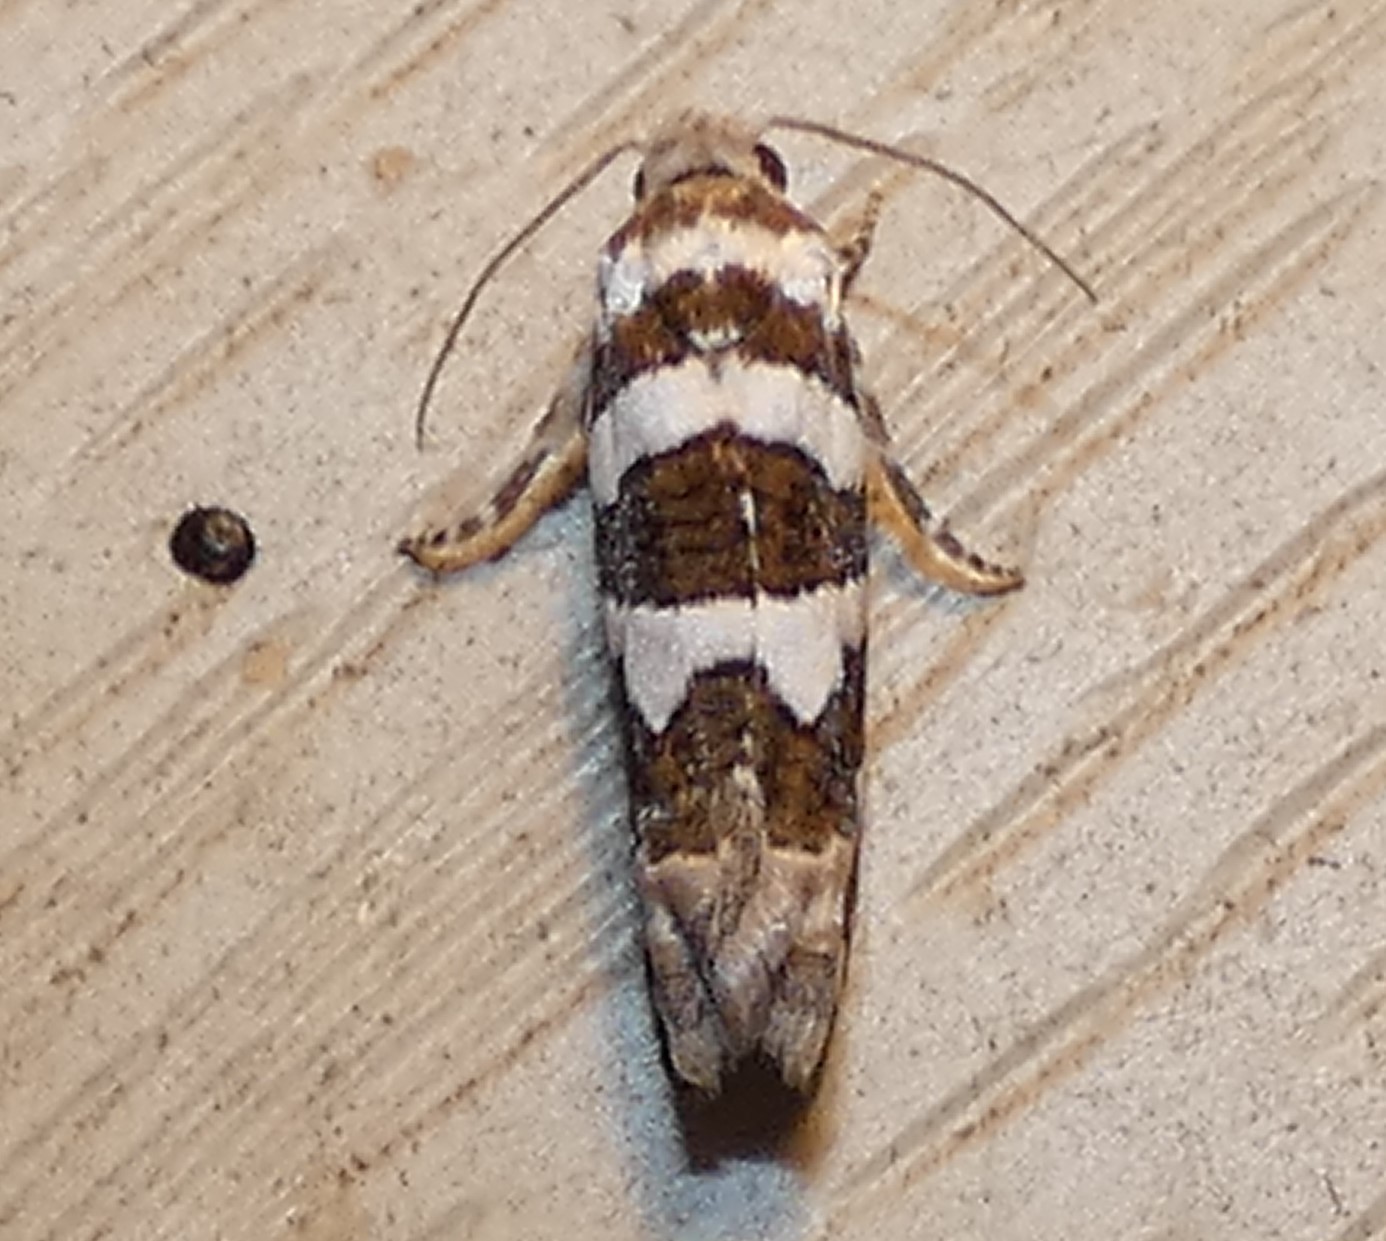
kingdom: Animalia
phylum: Arthropoda
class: Insecta
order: Lepidoptera
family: Tortricidae
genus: Pelochrista
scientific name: Pelochrista robinsonana
